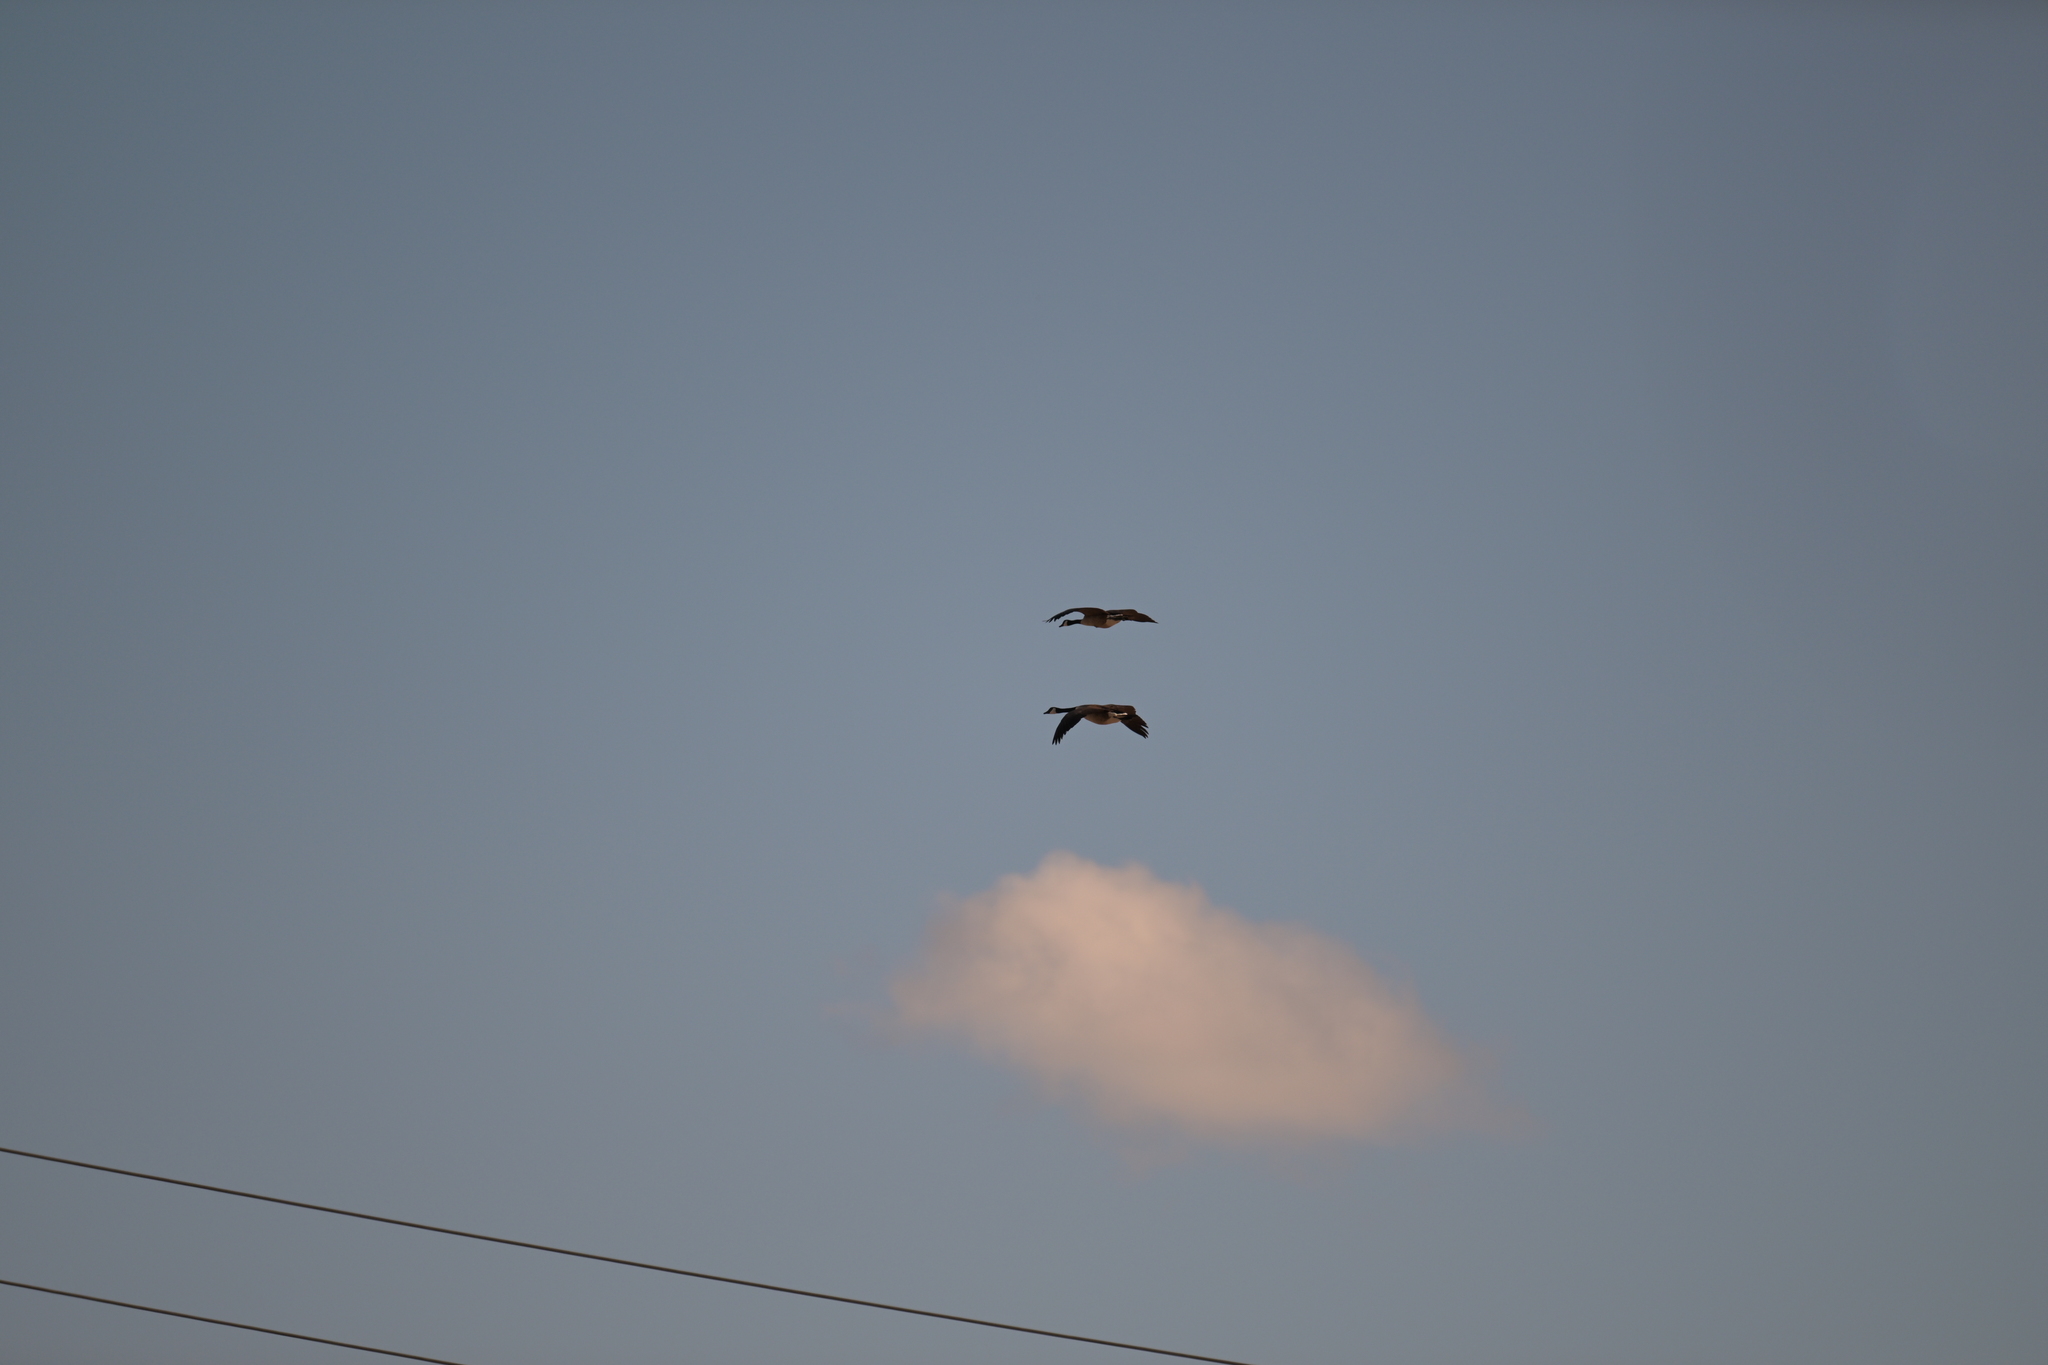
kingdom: Animalia
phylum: Chordata
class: Aves
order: Anseriformes
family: Anatidae
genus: Branta
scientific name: Branta canadensis
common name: Canada goose
